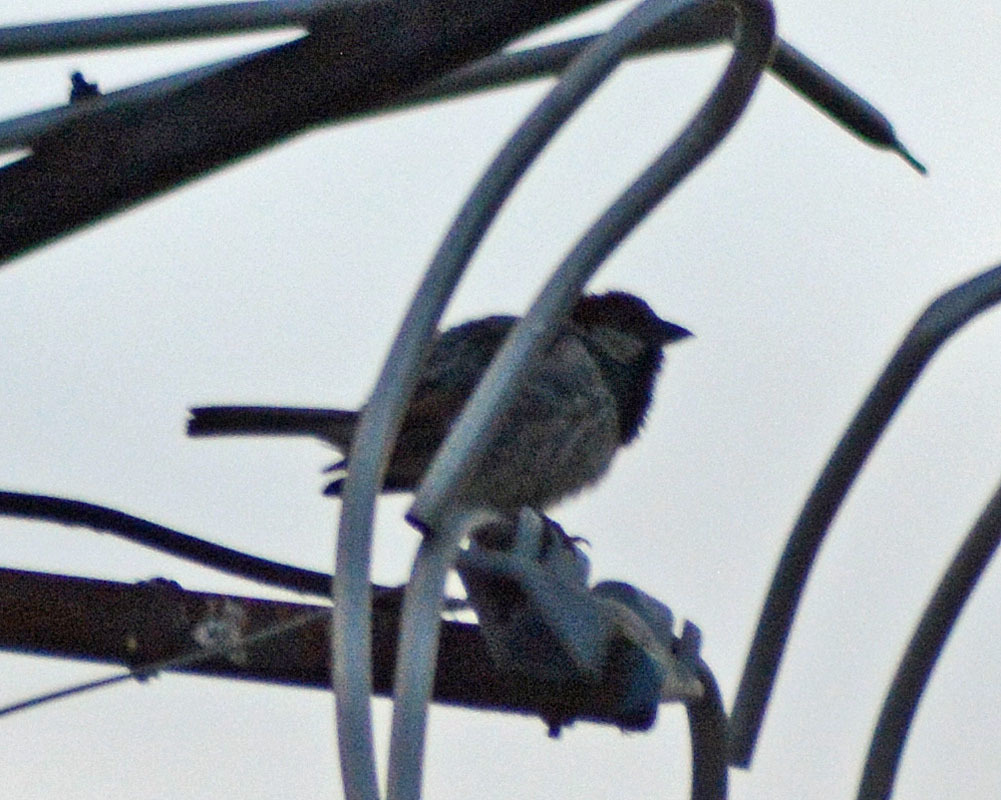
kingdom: Animalia
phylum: Chordata
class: Aves
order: Passeriformes
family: Passeridae
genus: Passer
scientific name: Passer domesticus
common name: House sparrow
